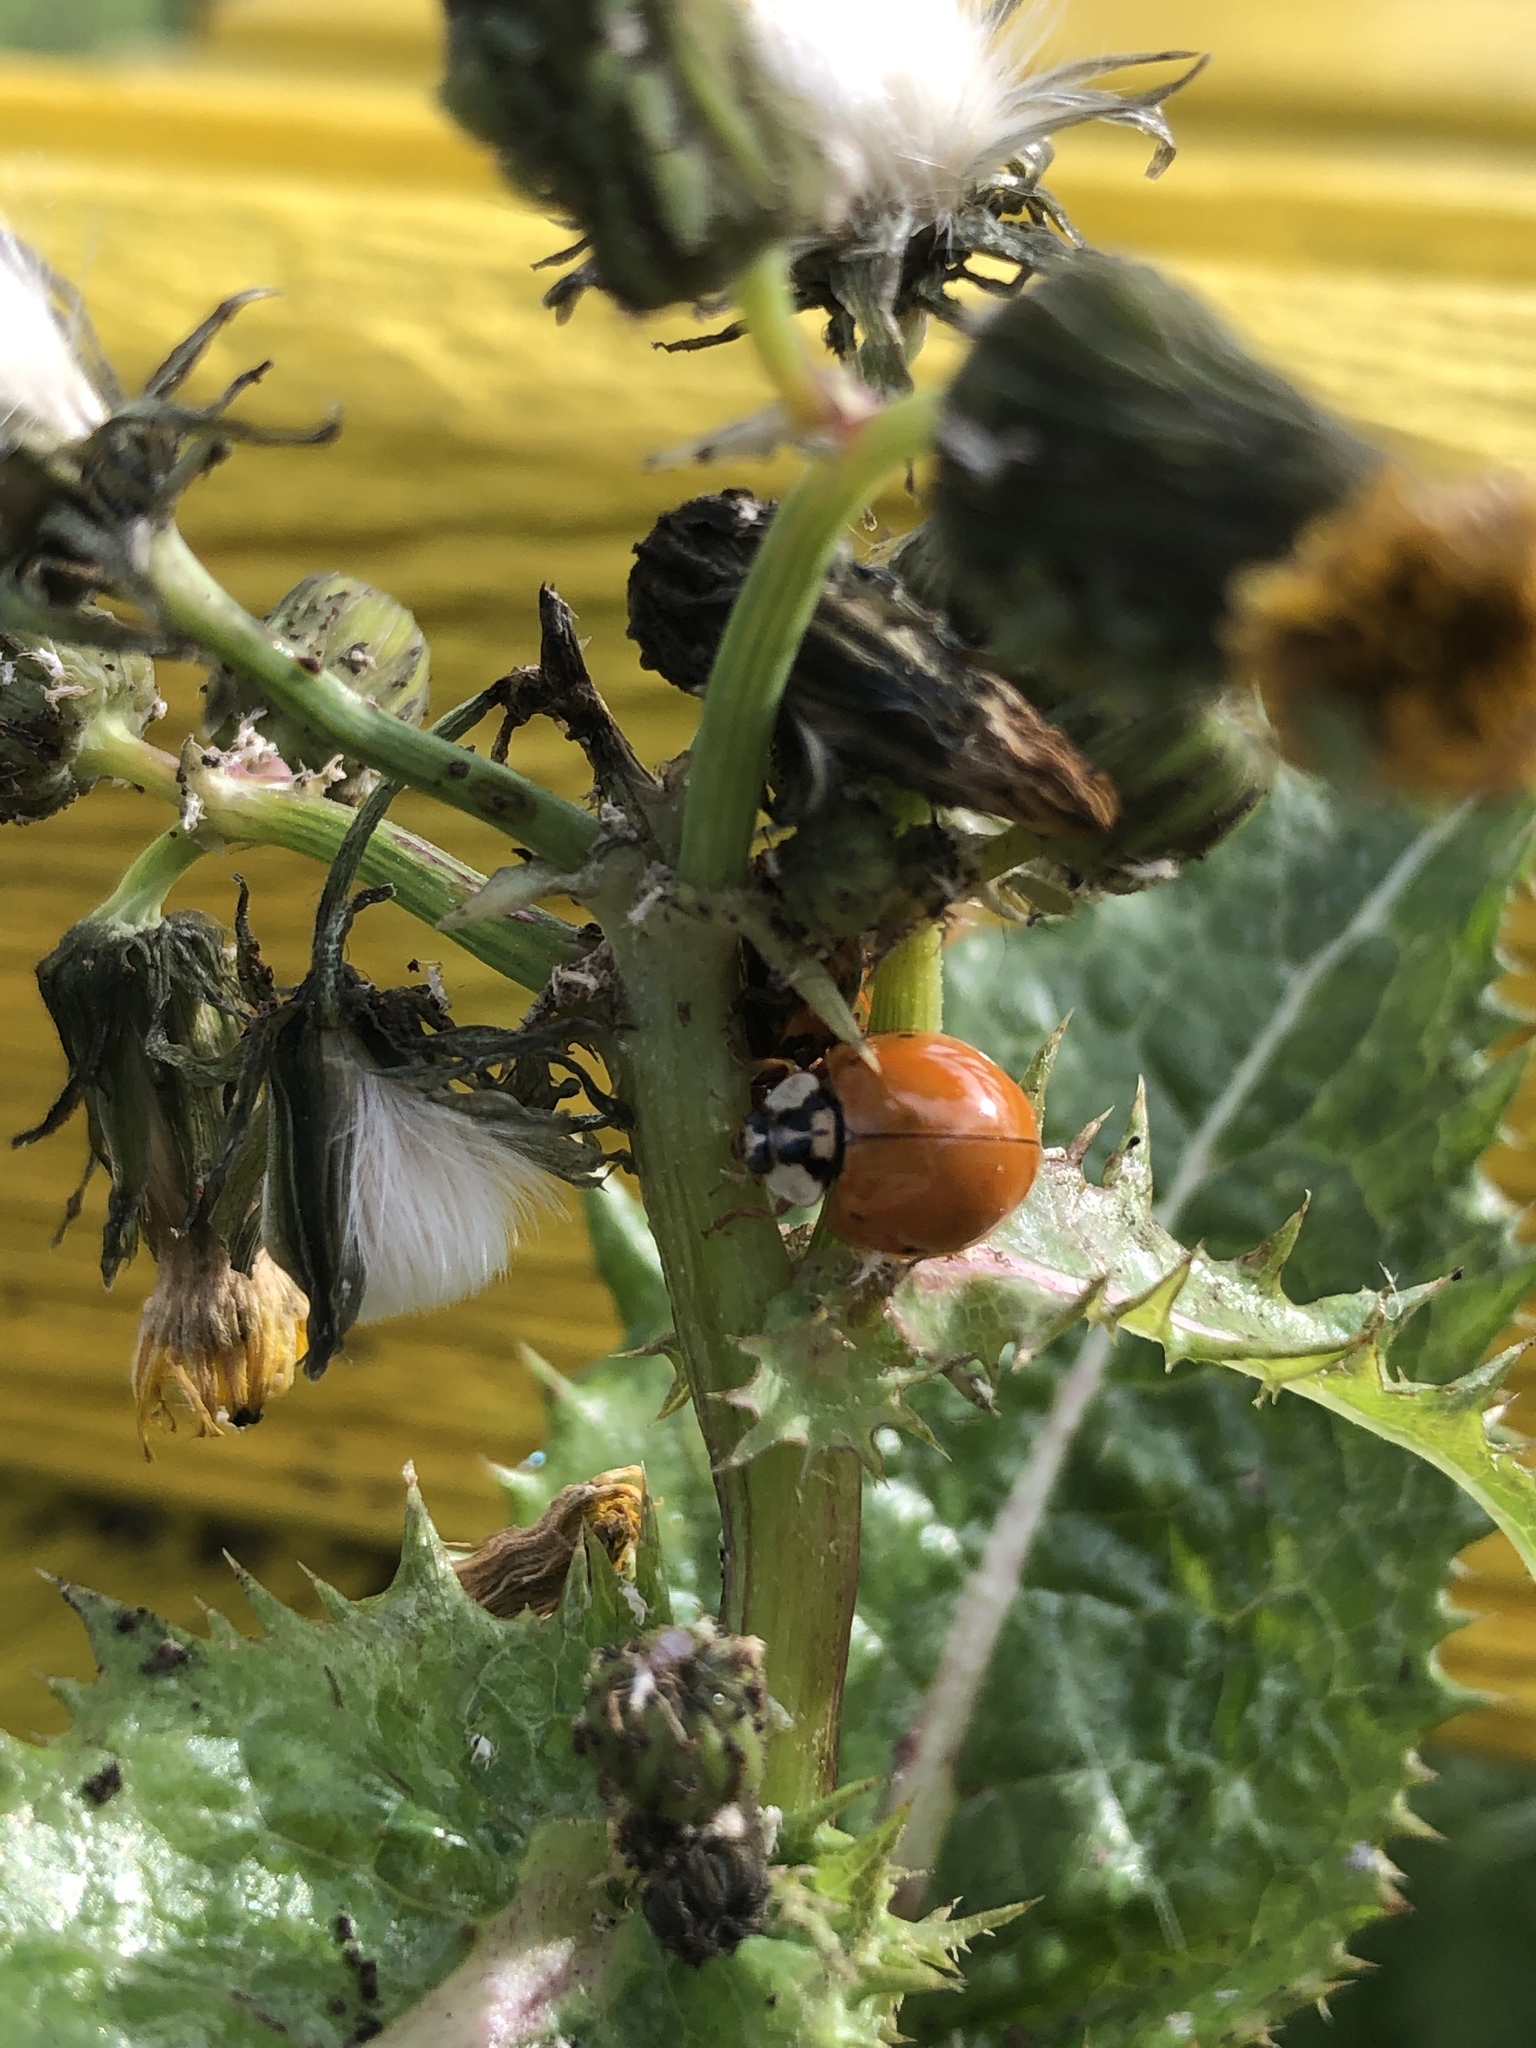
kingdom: Animalia
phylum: Arthropoda
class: Insecta
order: Coleoptera
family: Coccinellidae
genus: Harmonia
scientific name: Harmonia axyridis
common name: Harlequin ladybird
